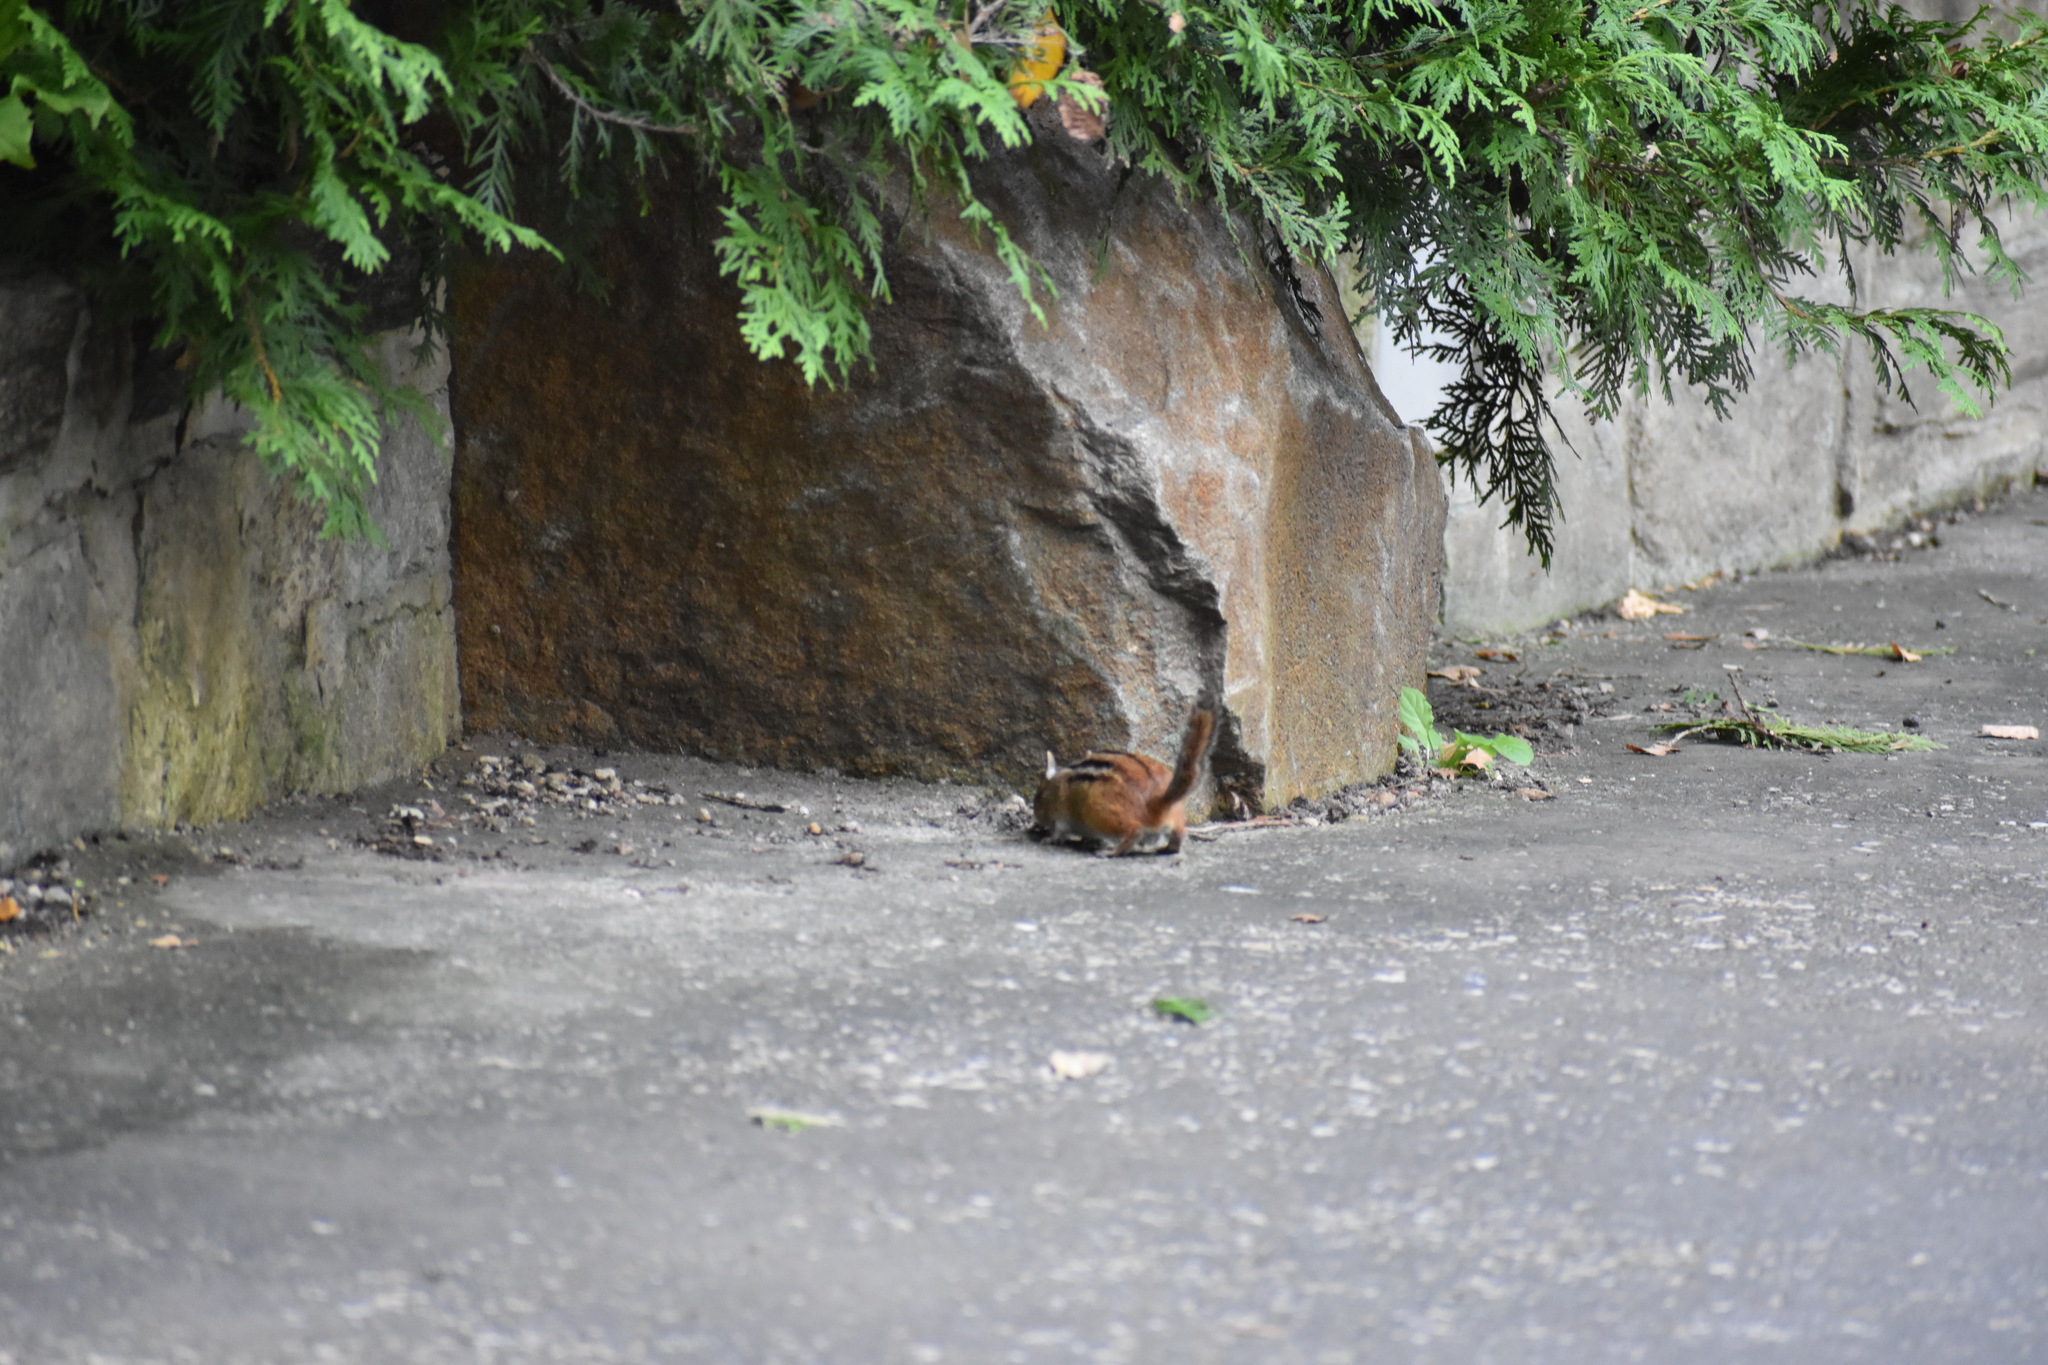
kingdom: Animalia
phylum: Chordata
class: Mammalia
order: Rodentia
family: Sciuridae
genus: Tamias
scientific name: Tamias striatus
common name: Eastern chipmunk
